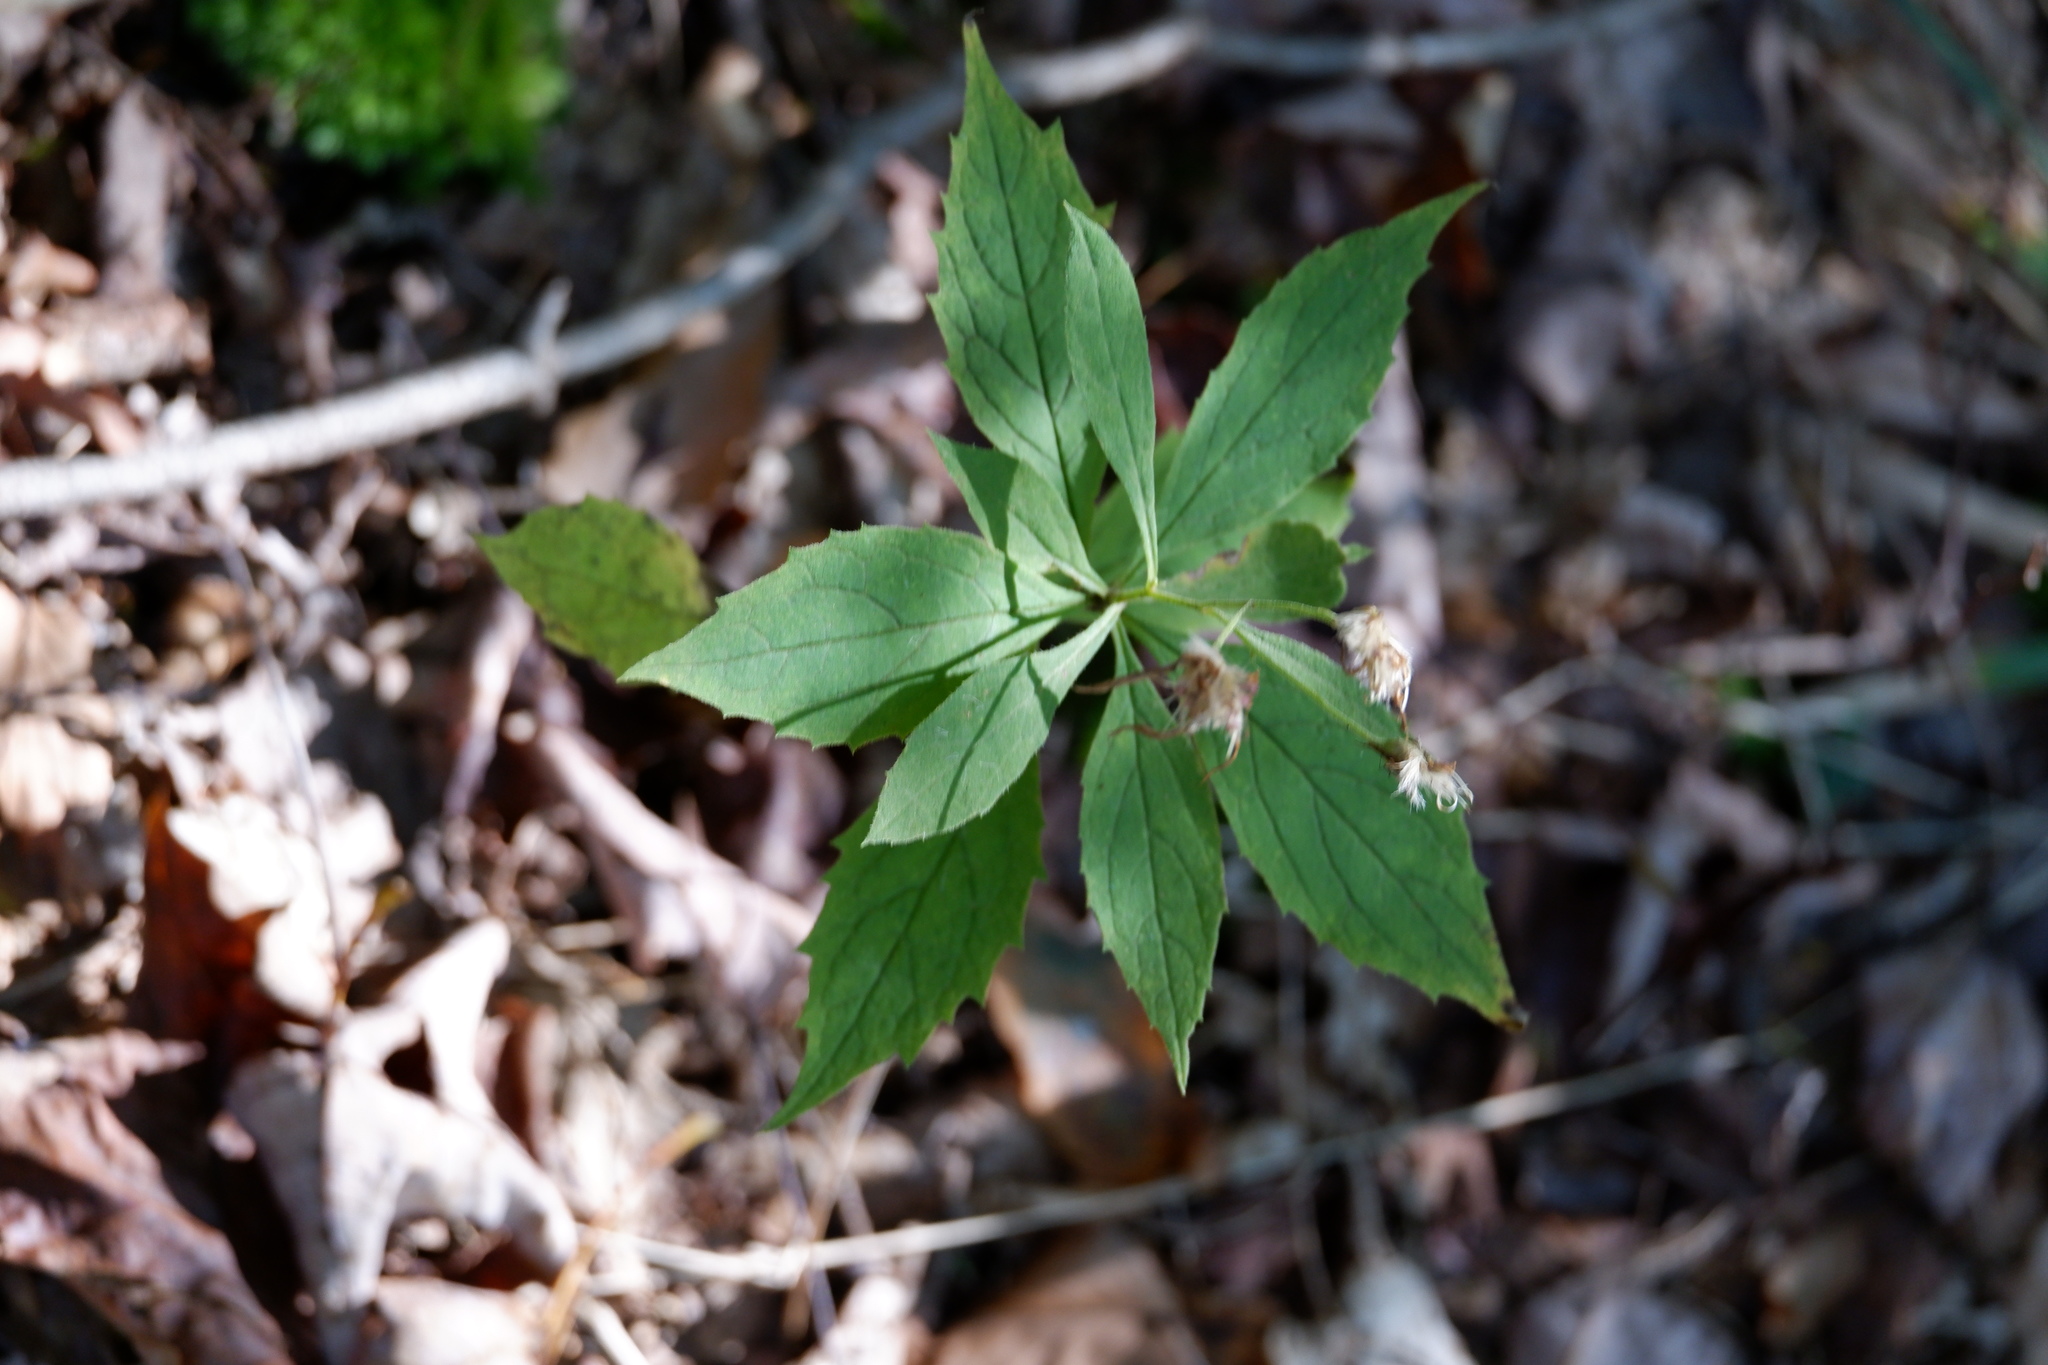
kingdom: Plantae
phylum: Tracheophyta
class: Magnoliopsida
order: Asterales
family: Asteraceae
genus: Oclemena
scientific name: Oclemena acuminata
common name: Mountain aster
